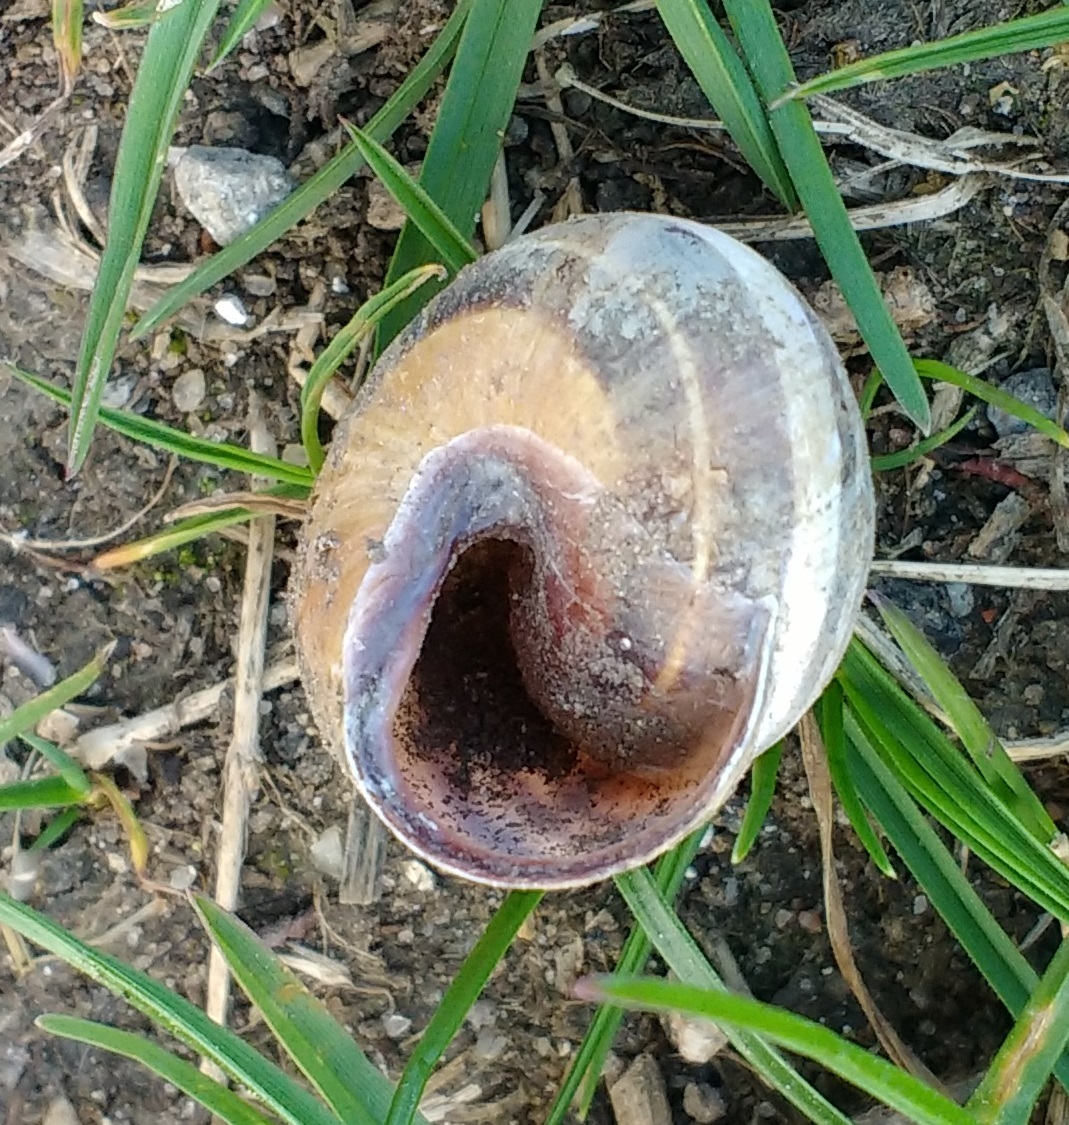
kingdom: Animalia
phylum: Mollusca
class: Gastropoda
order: Stylommatophora
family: Helicidae
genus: Cepaea
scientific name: Cepaea nemoralis
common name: Grovesnail
